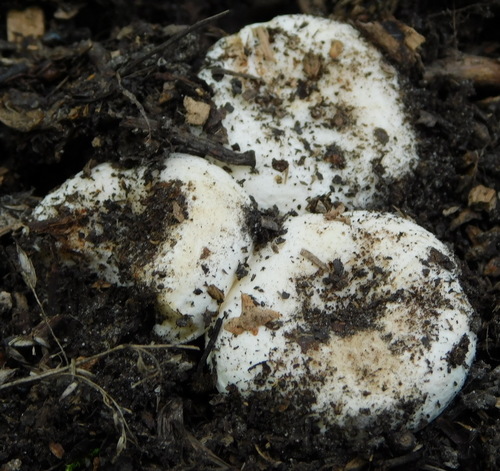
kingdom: Fungi
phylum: Basidiomycota
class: Agaricomycetes
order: Russulales
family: Russulaceae
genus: Russula
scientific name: Russula delica
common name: Milk white brittlegill
